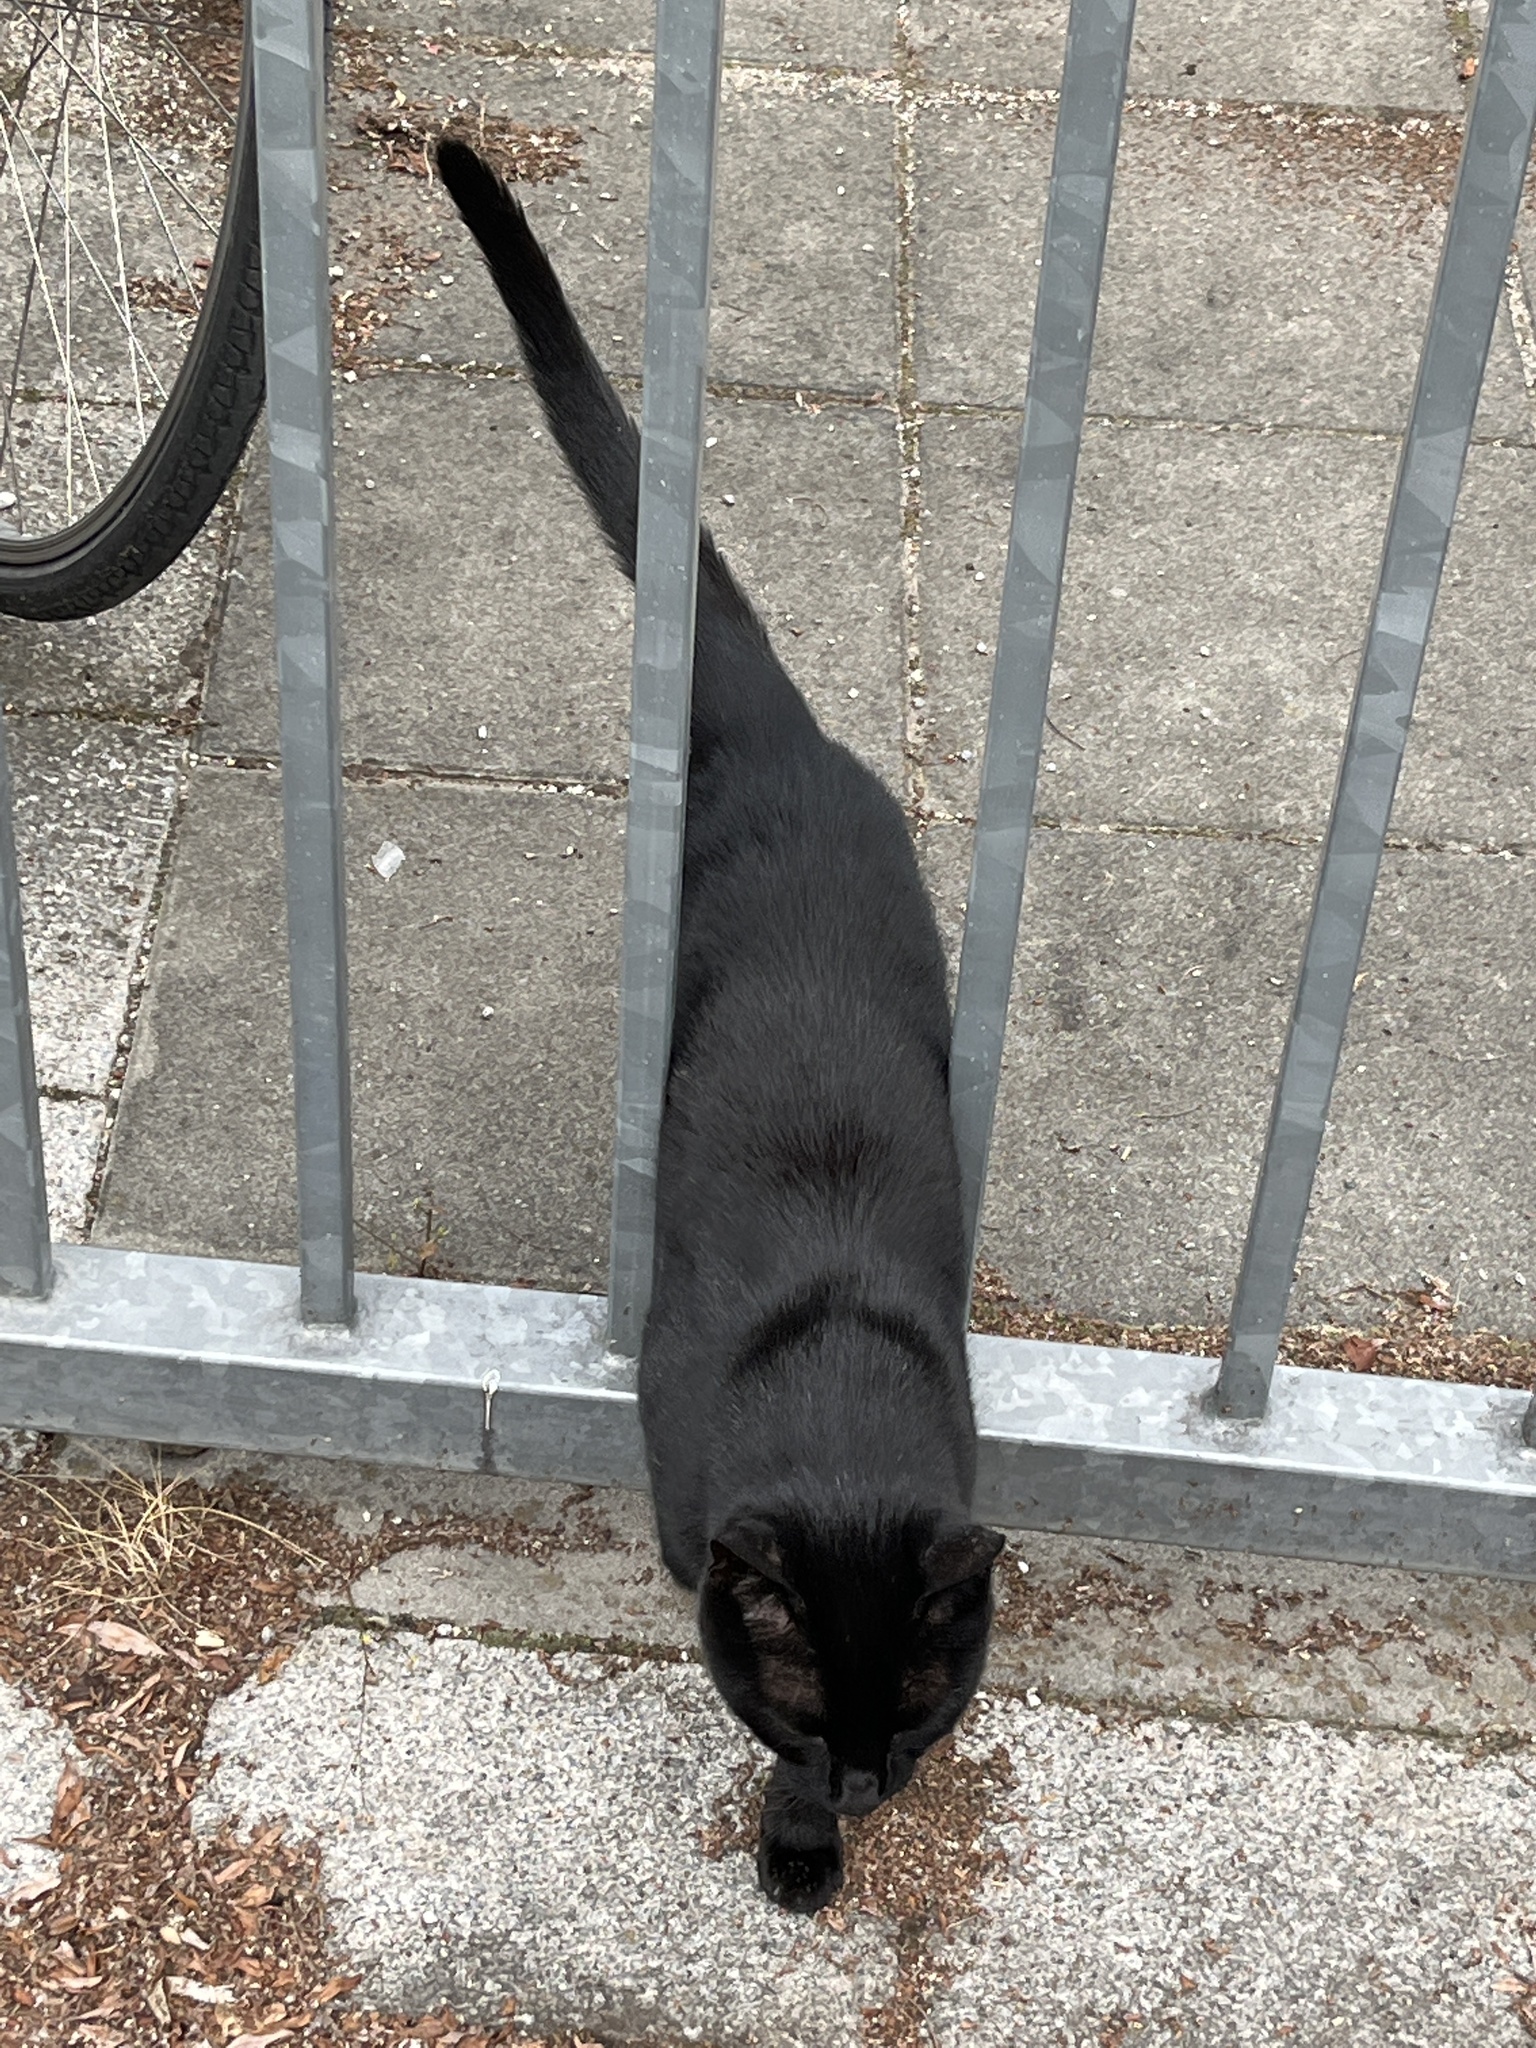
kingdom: Animalia
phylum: Chordata
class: Mammalia
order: Carnivora
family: Felidae
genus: Felis
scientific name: Felis catus
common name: Domestic cat
